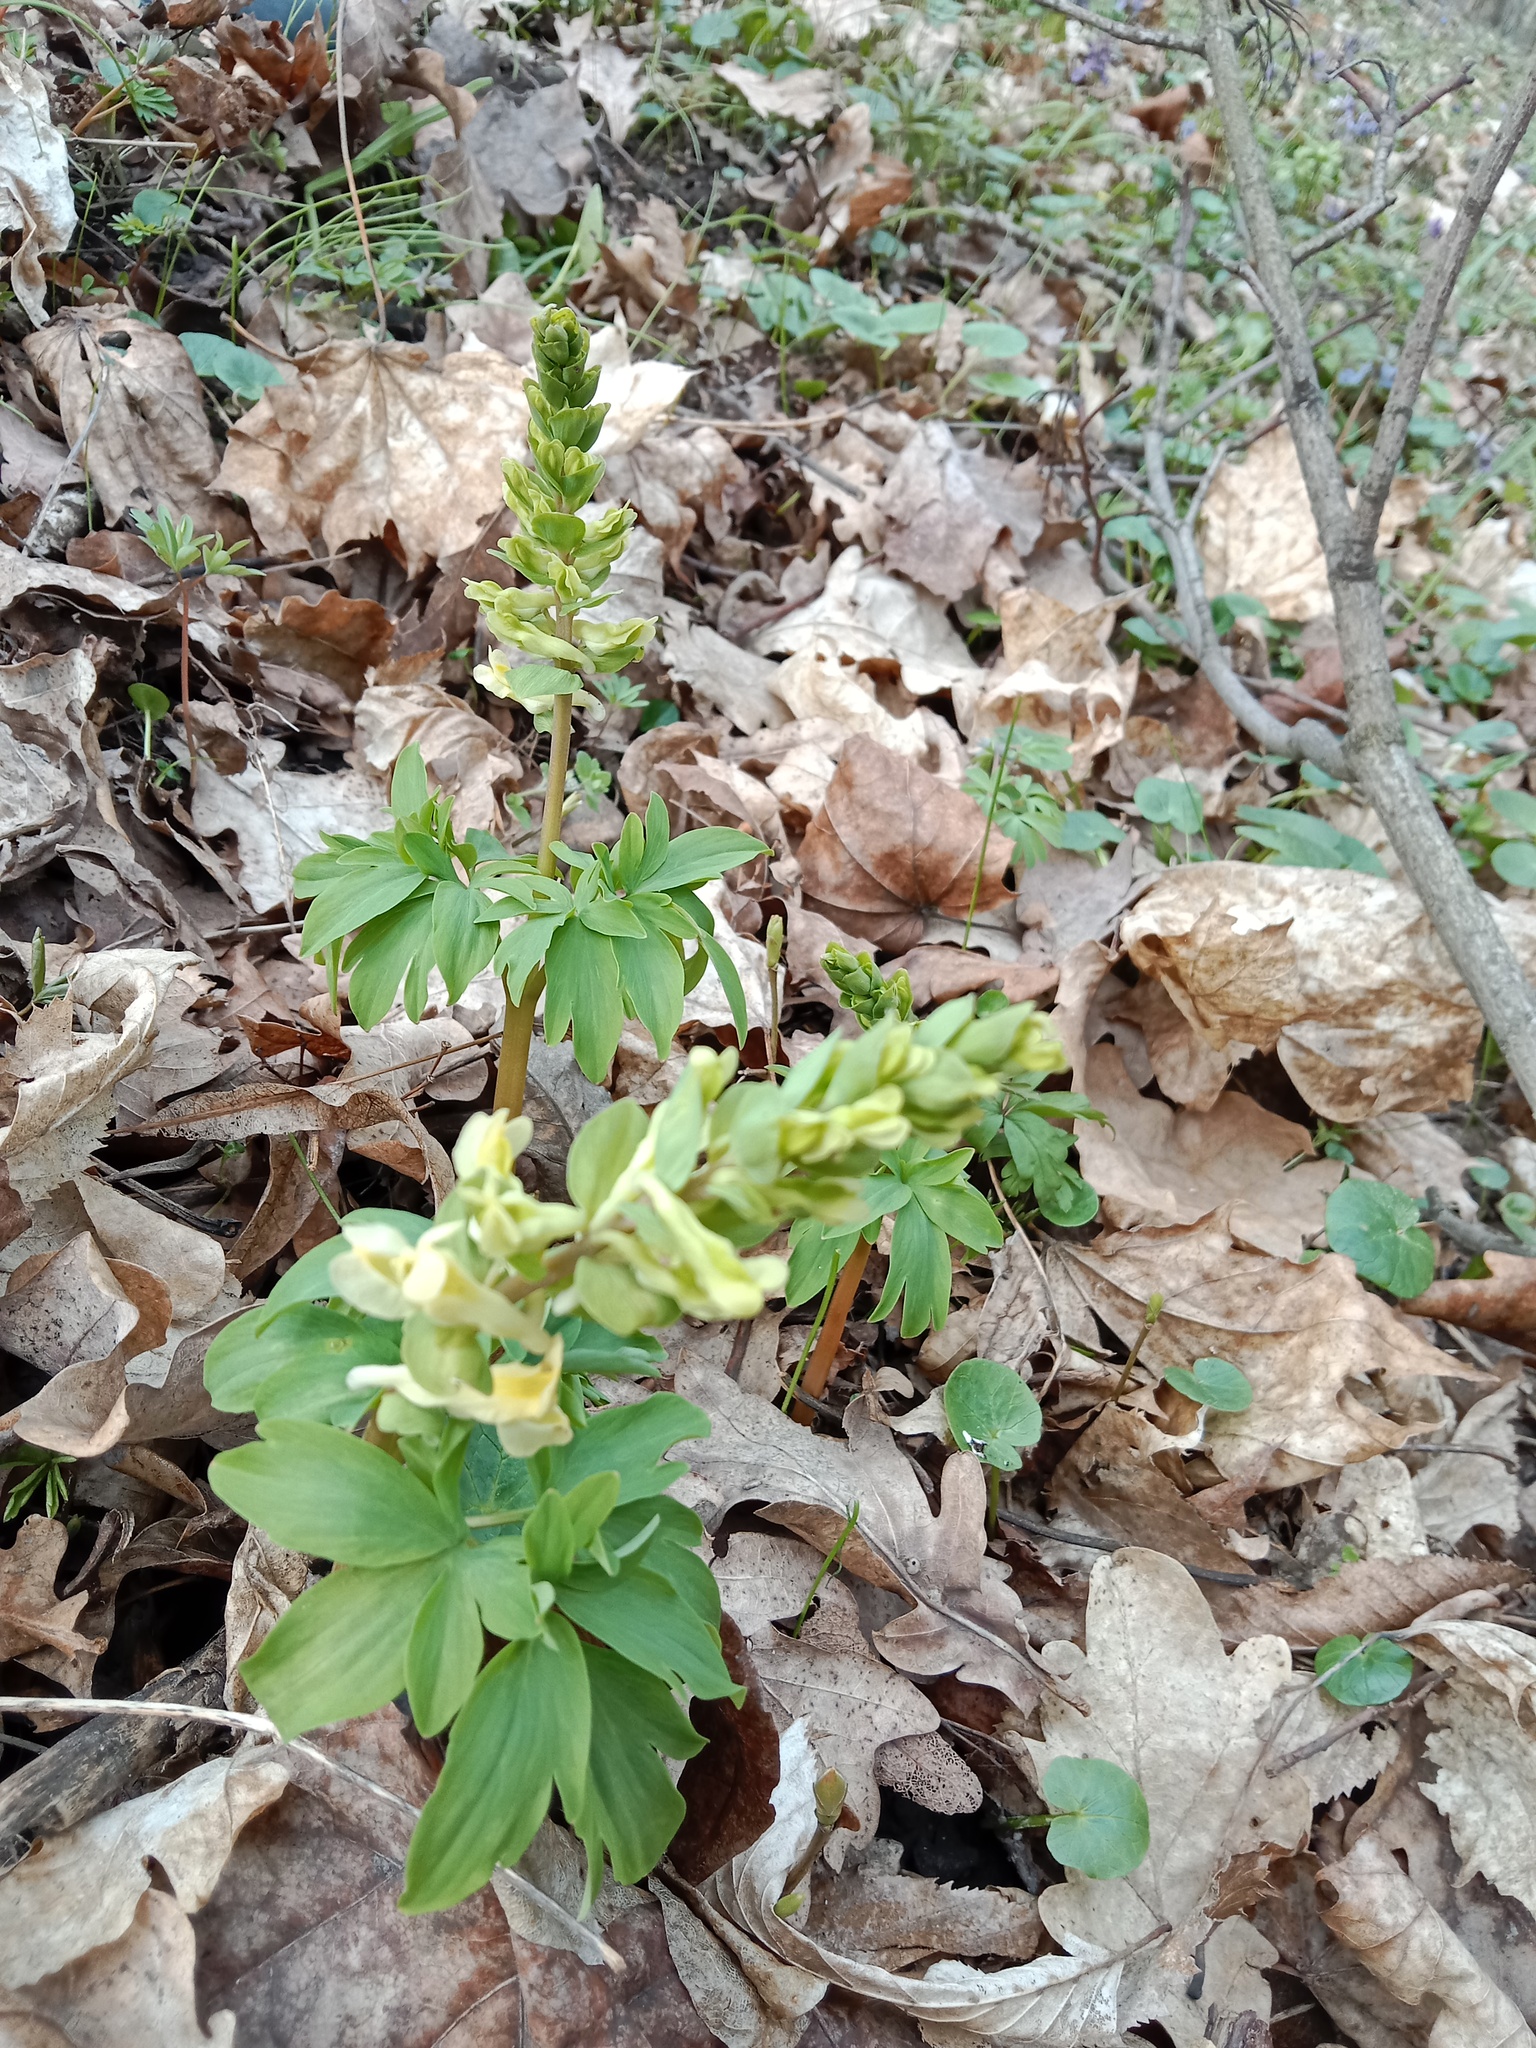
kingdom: Plantae
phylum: Tracheophyta
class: Magnoliopsida
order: Ranunculales
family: Papaveraceae
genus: Corydalis
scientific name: Corydalis cava
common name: Hollowroot
